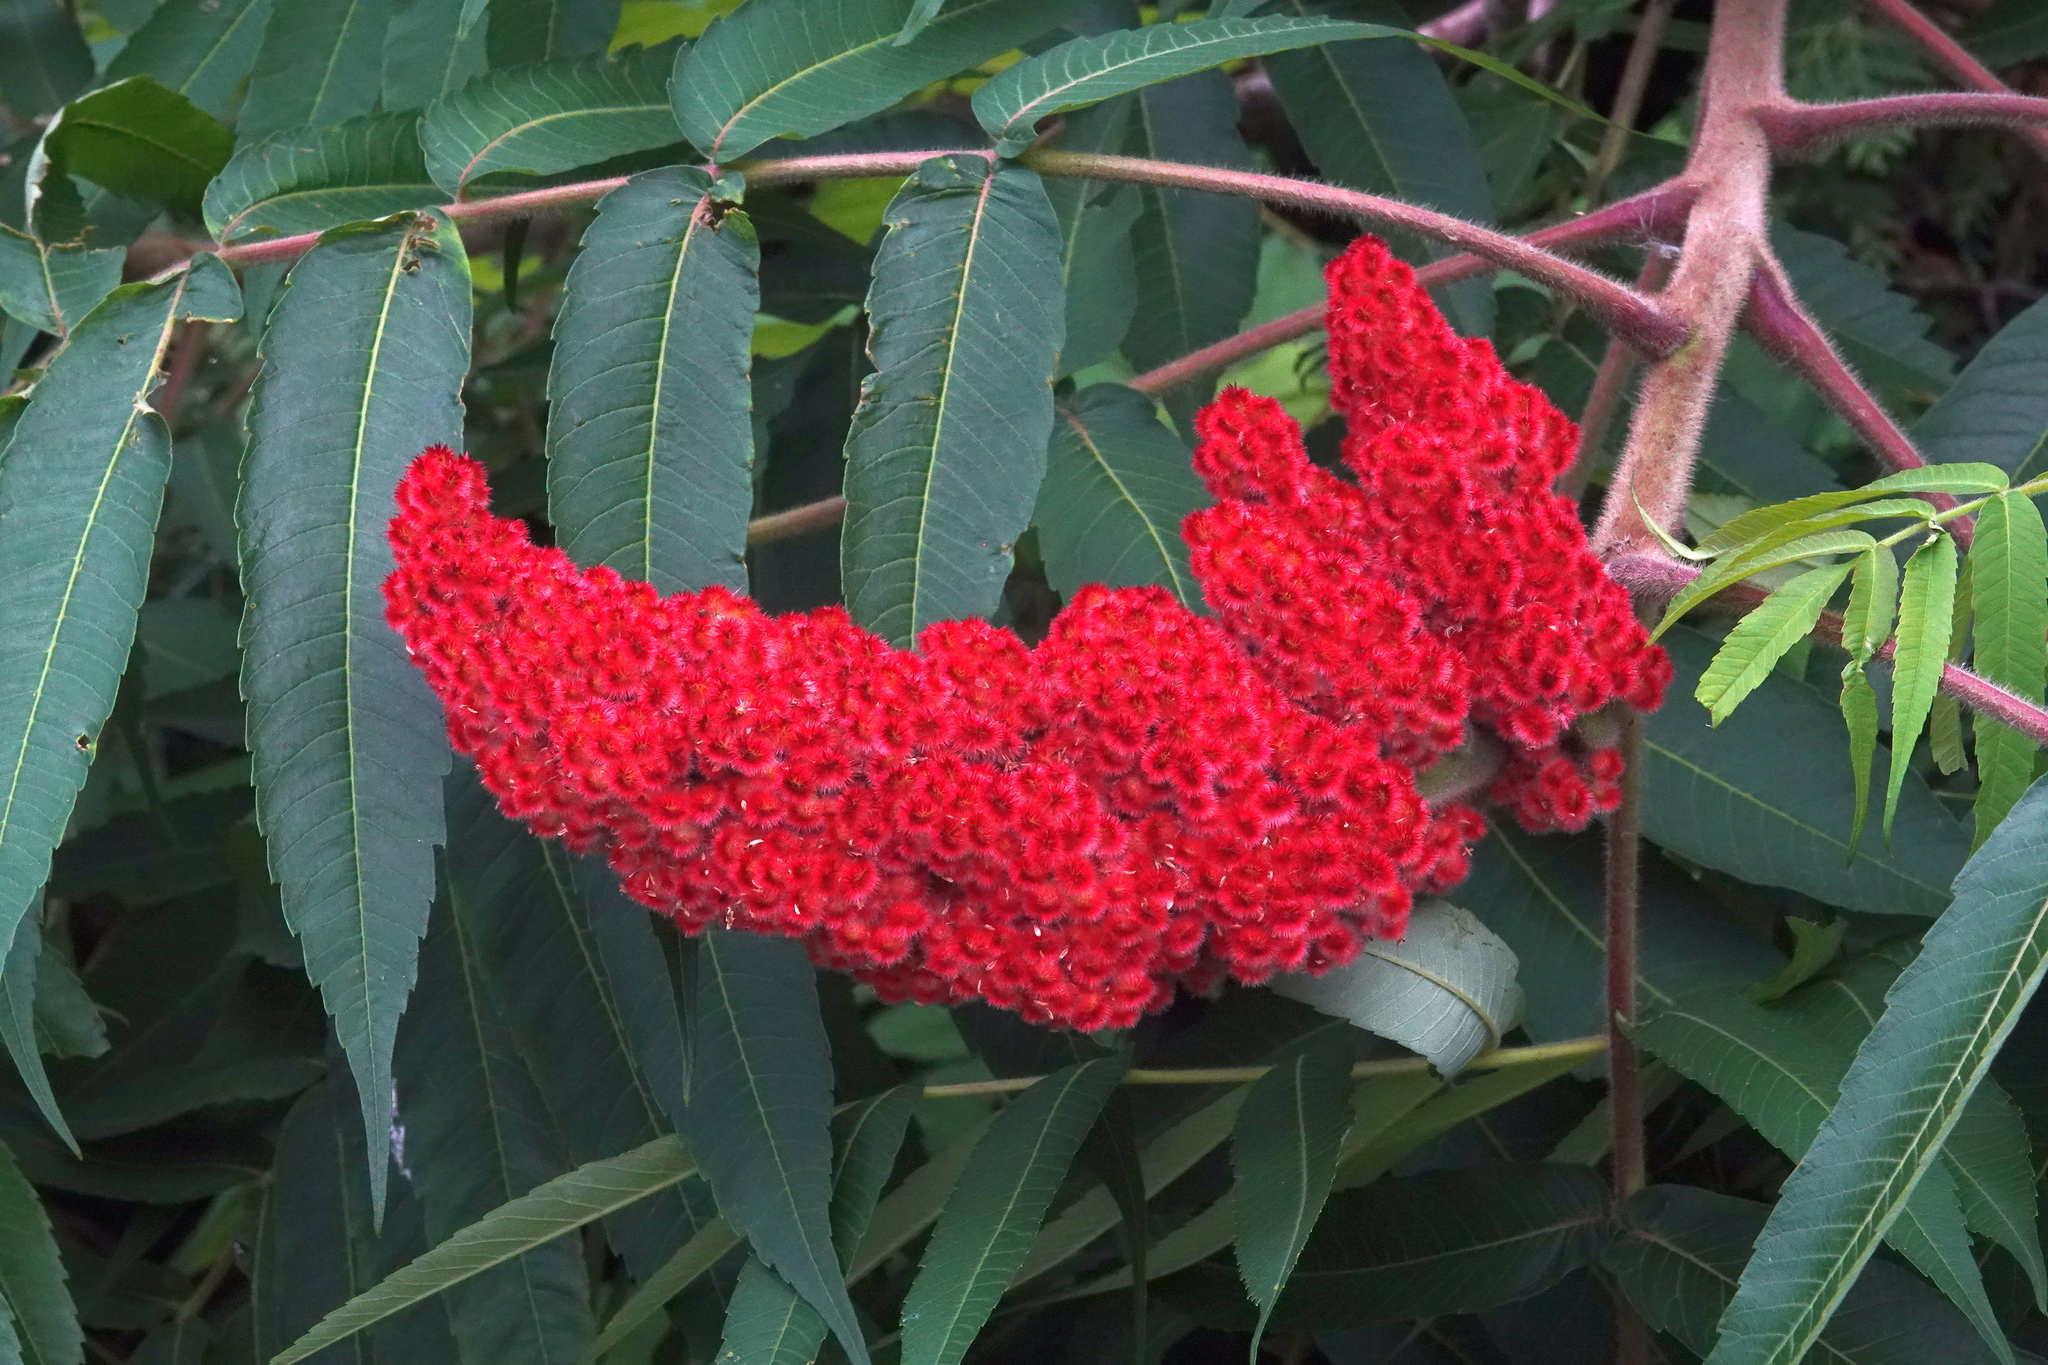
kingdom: Plantae
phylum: Tracheophyta
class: Magnoliopsida
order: Sapindales
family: Anacardiaceae
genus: Rhus
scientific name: Rhus typhina
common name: Staghorn sumac
